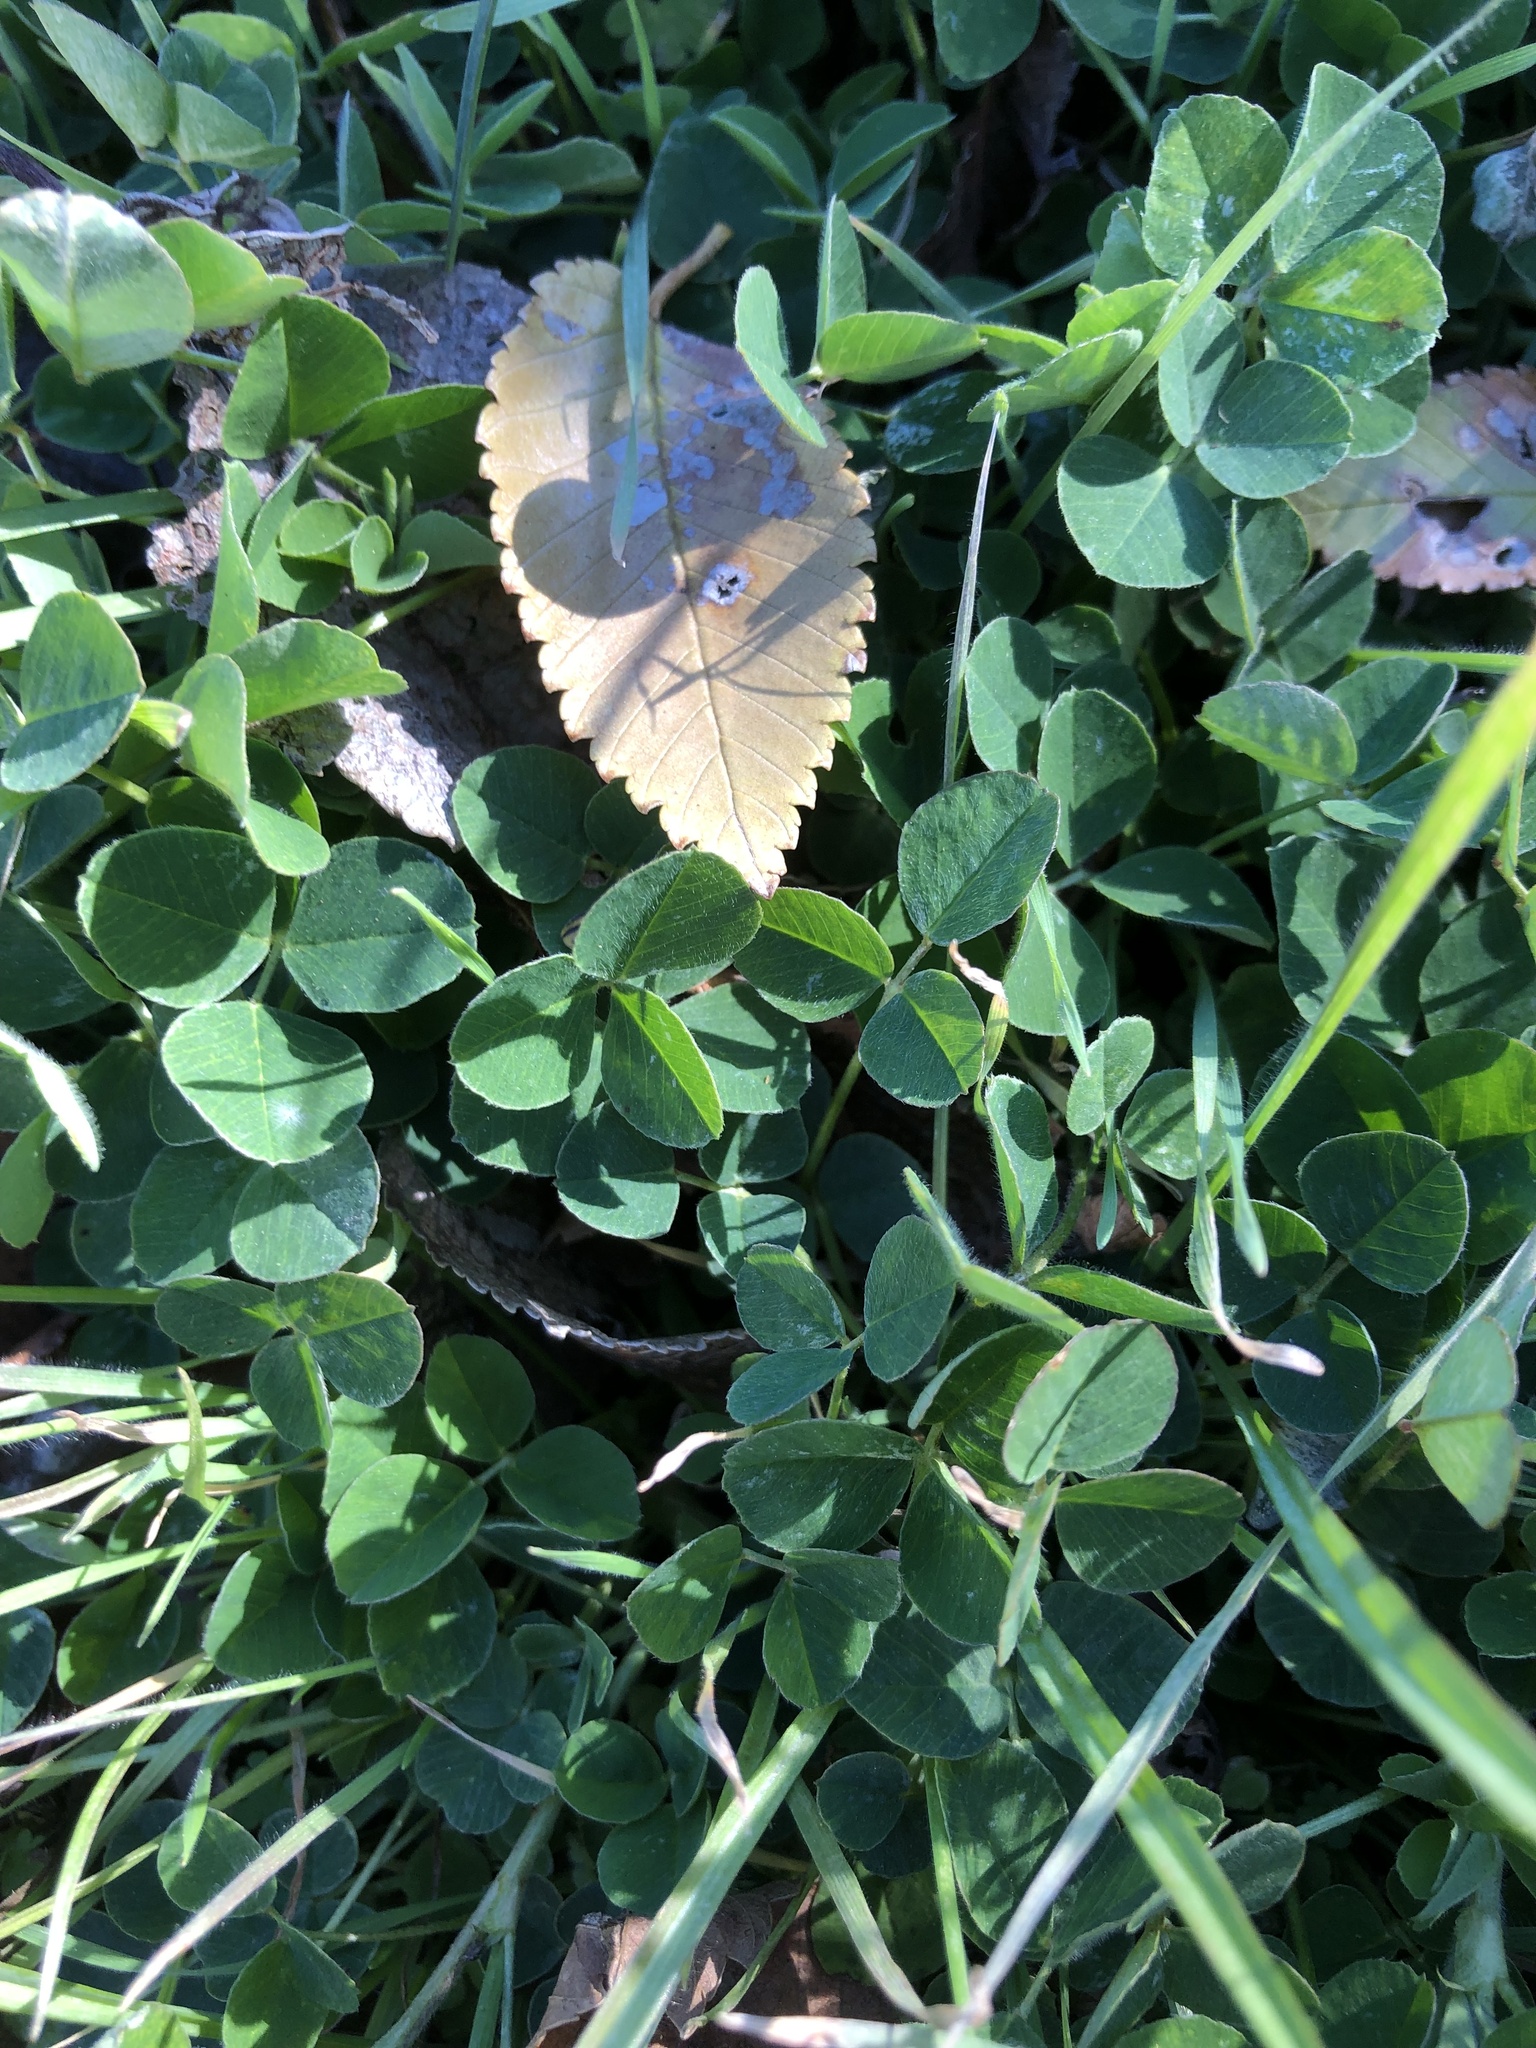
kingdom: Plantae
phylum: Tracheophyta
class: Magnoliopsida
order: Fabales
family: Fabaceae
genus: Medicago
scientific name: Medicago lupulina
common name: Black medick
